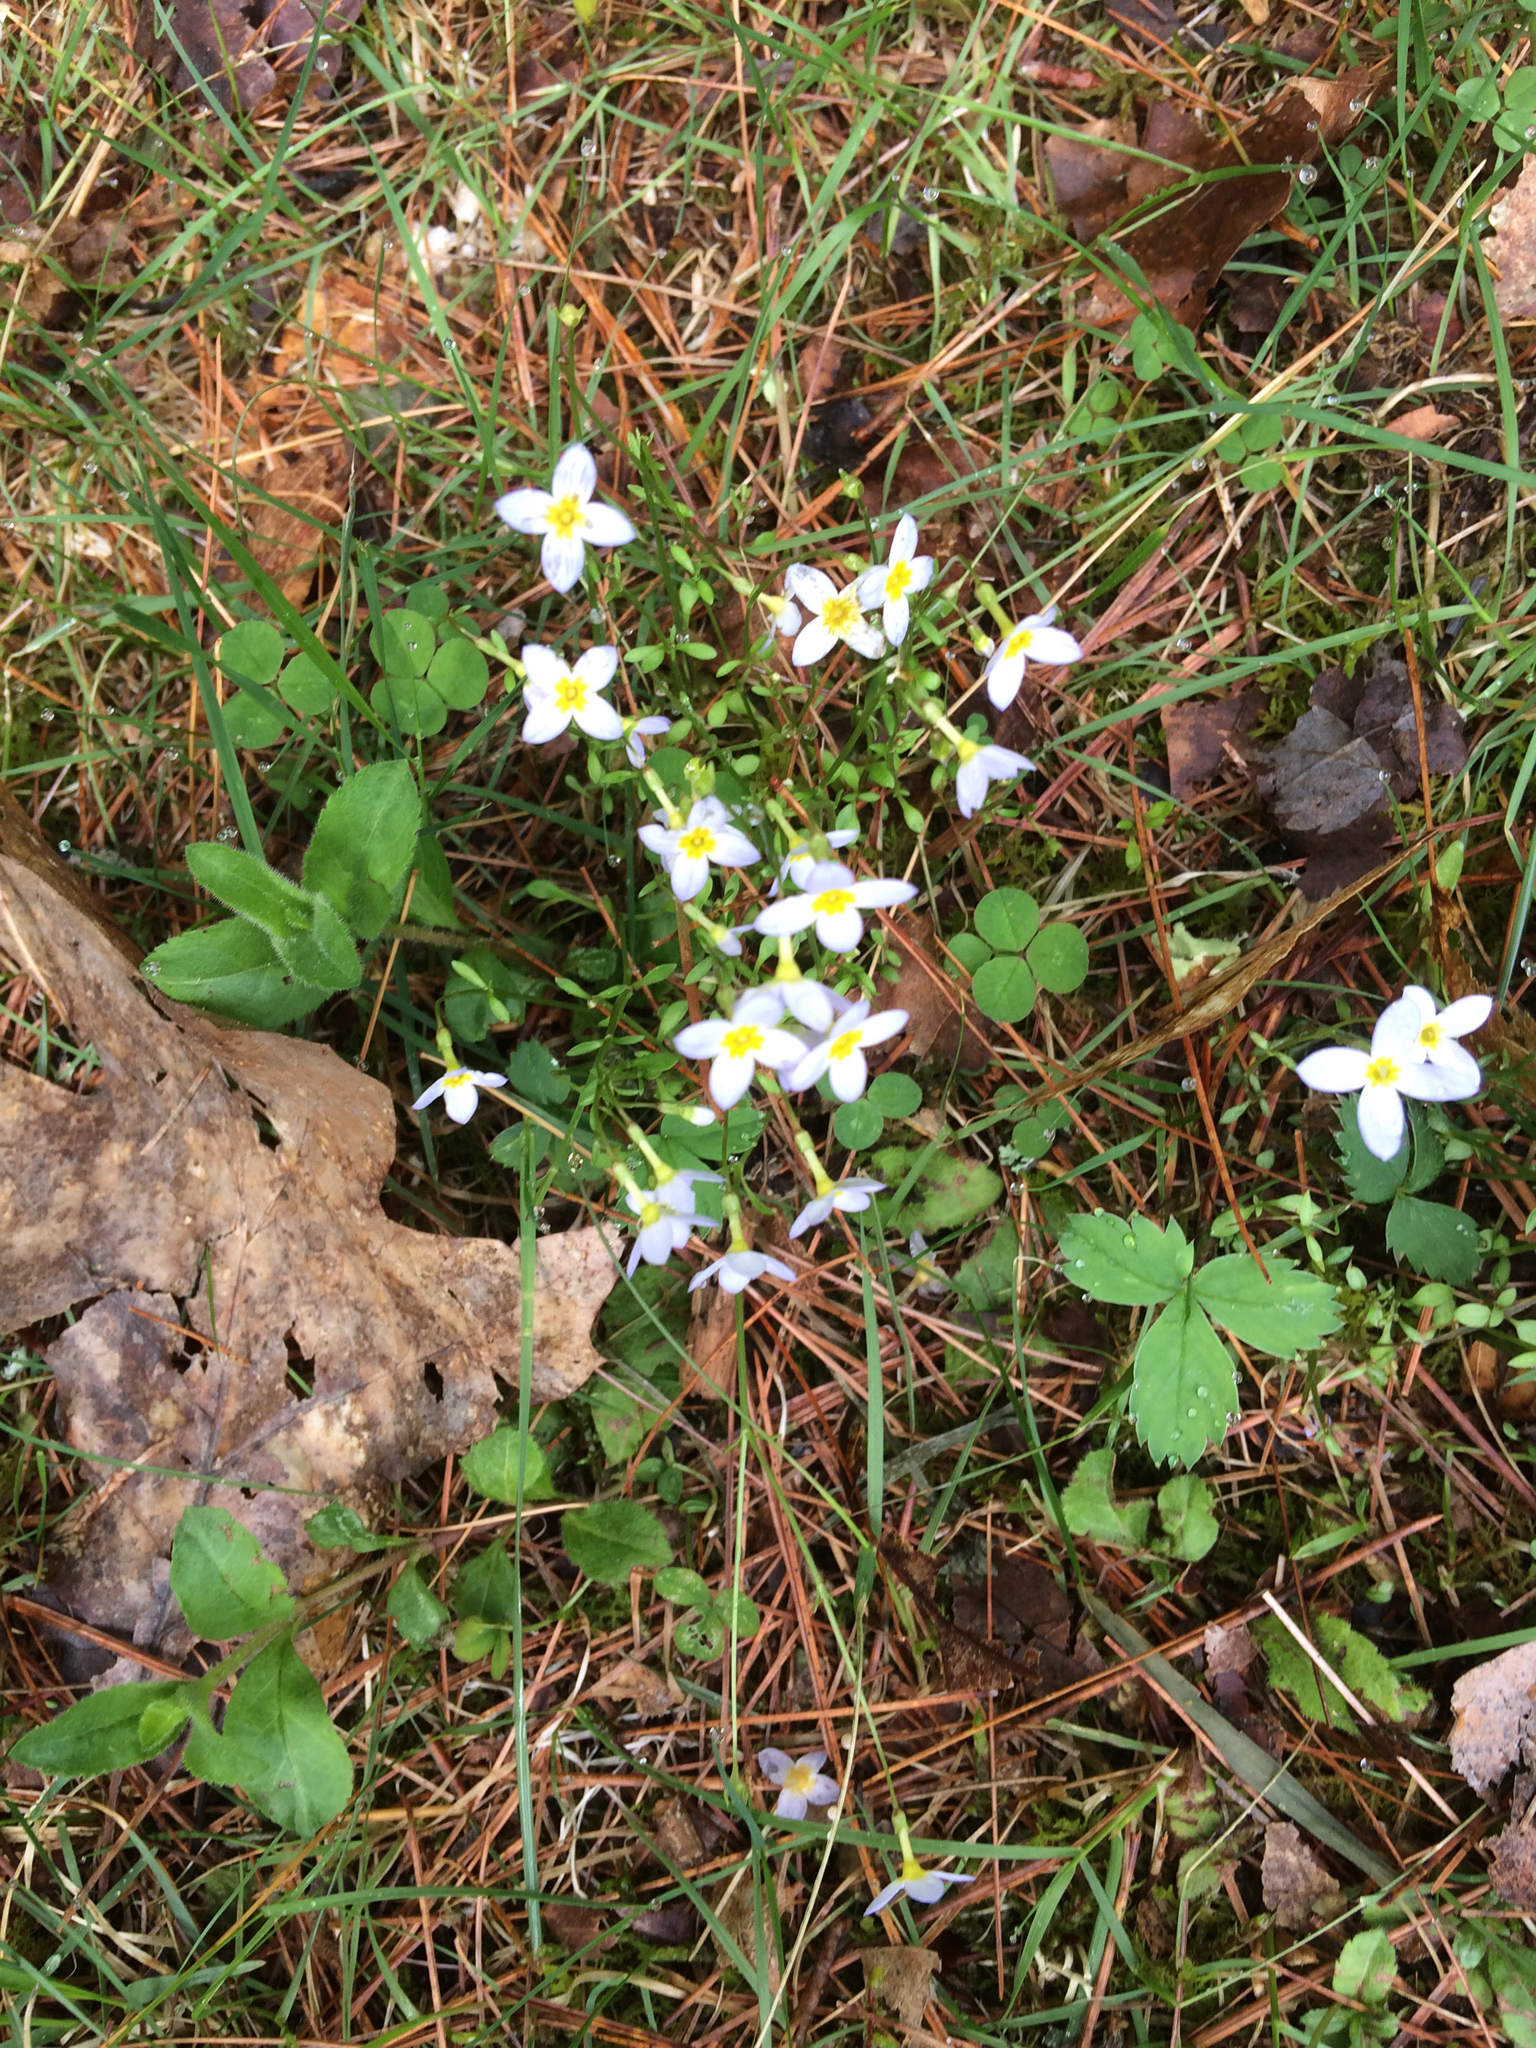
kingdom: Plantae
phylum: Tracheophyta
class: Magnoliopsida
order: Gentianales
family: Rubiaceae
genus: Houstonia
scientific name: Houstonia caerulea
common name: Bluets
